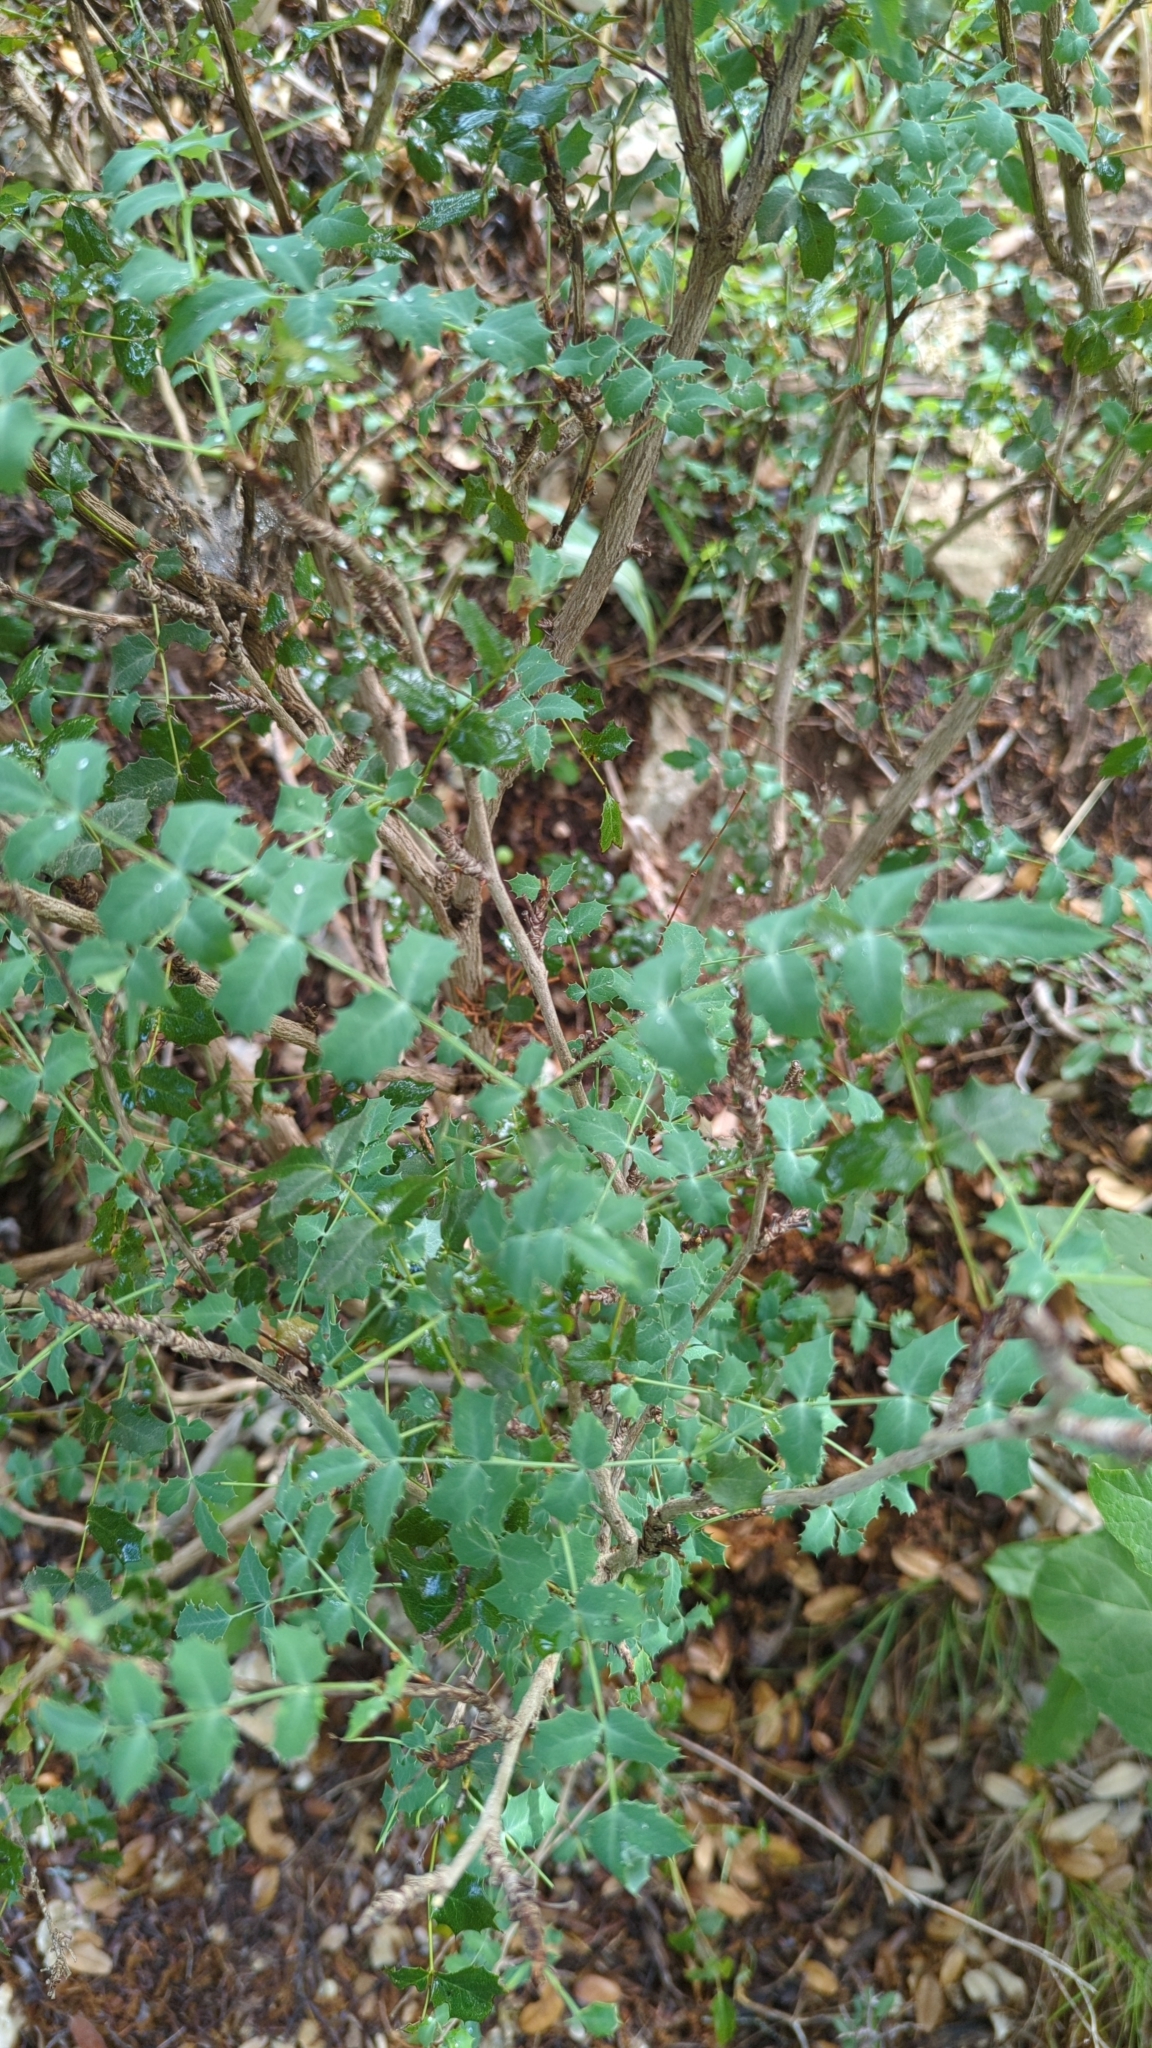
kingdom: Plantae
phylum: Tracheophyta
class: Magnoliopsida
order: Ranunculales
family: Berberidaceae
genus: Berberis
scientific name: Berberis swaseyi
